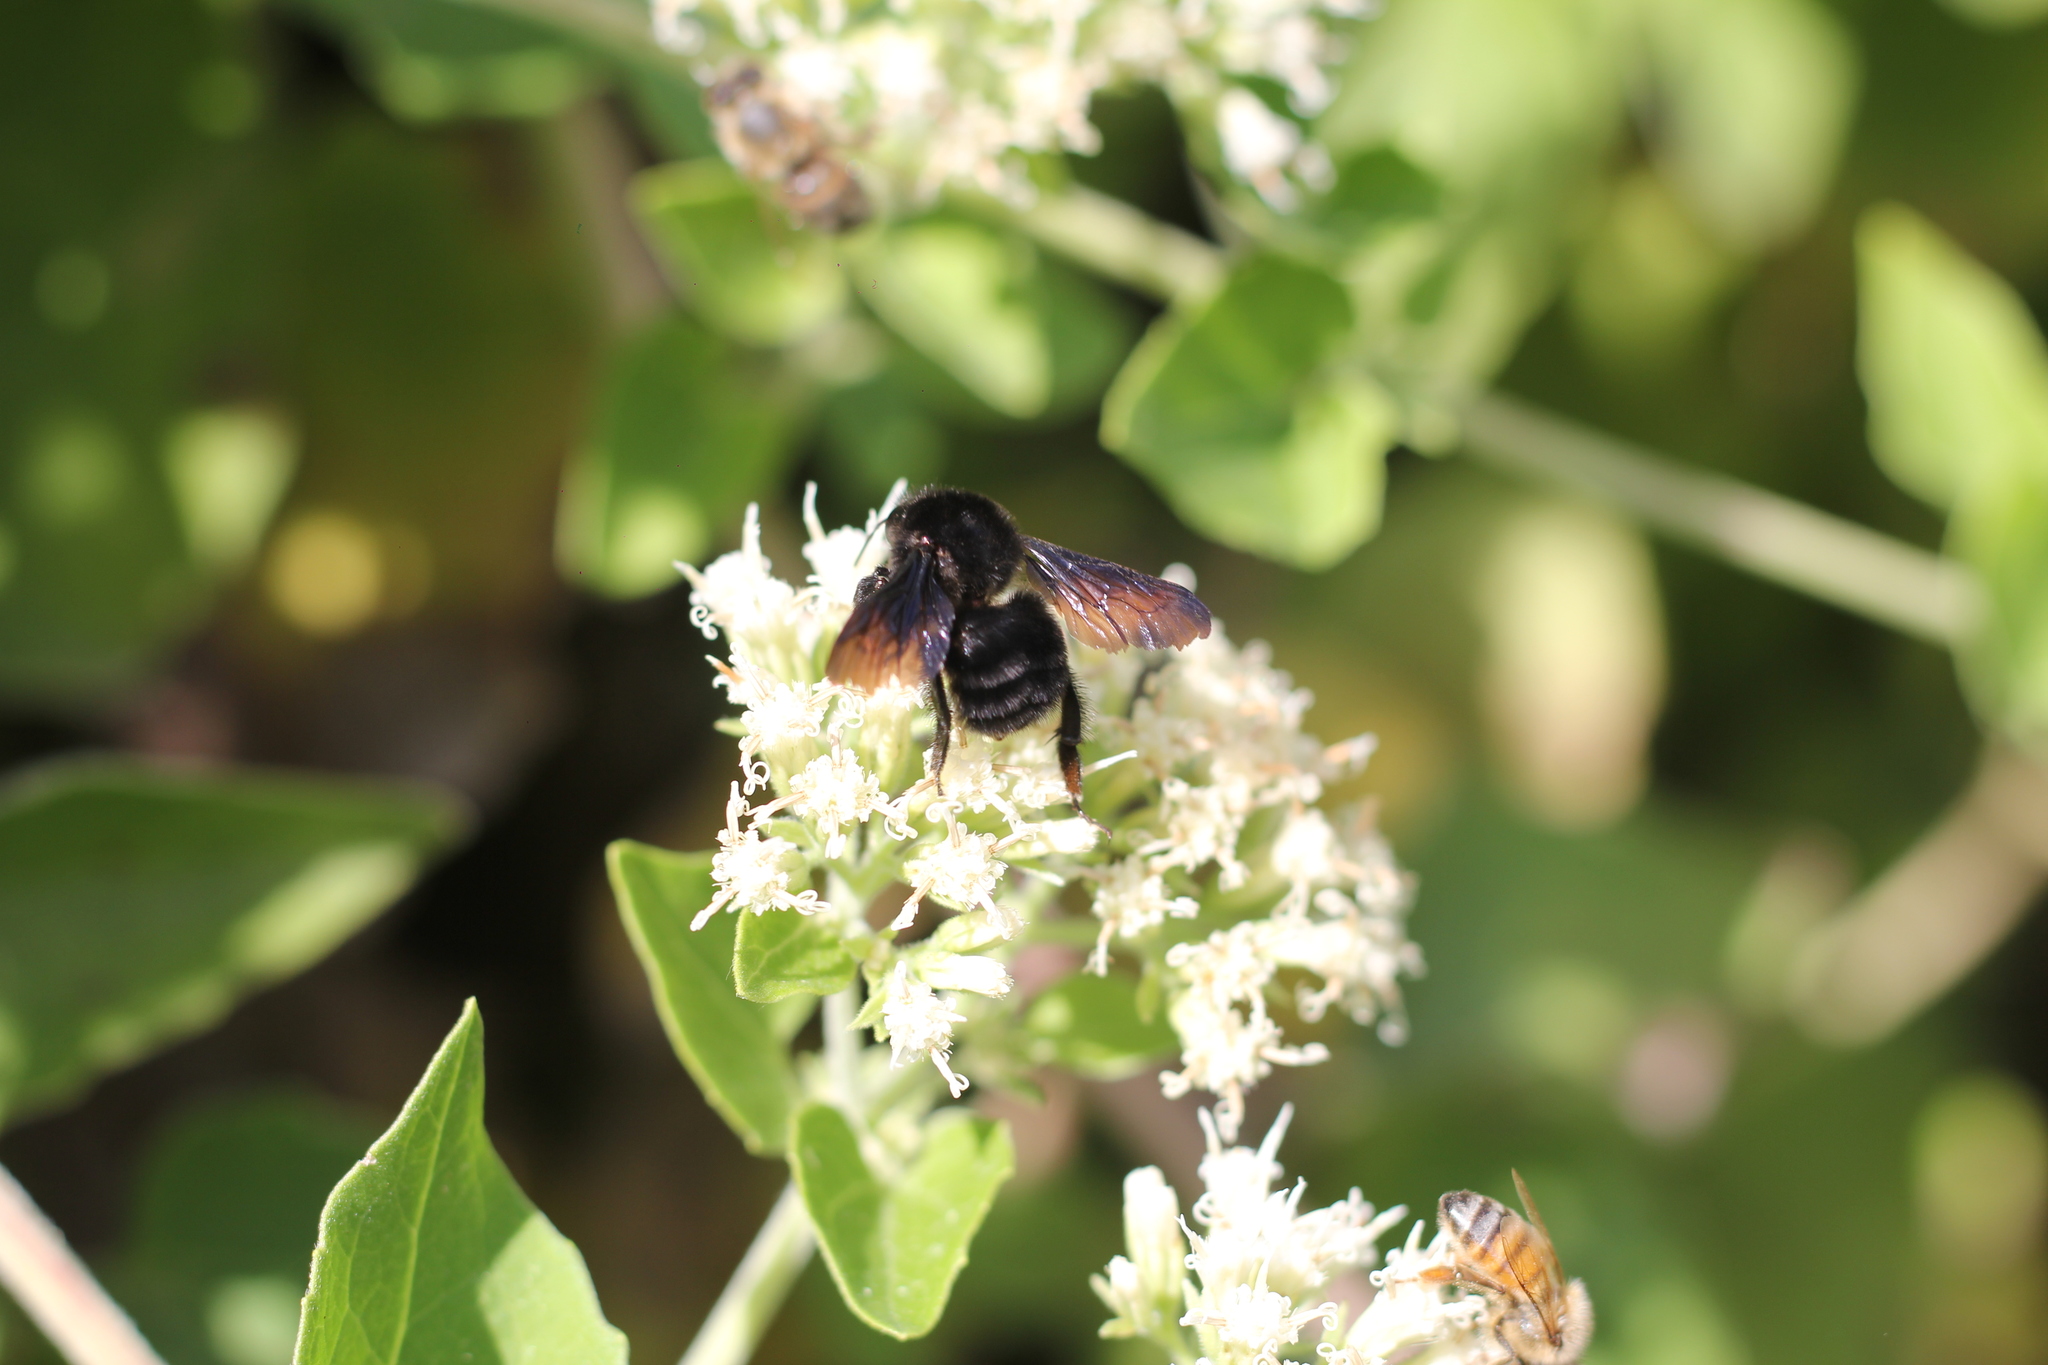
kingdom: Animalia
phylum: Arthropoda
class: Insecta
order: Hymenoptera
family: Apidae
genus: Bombus
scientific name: Bombus pauloensis
